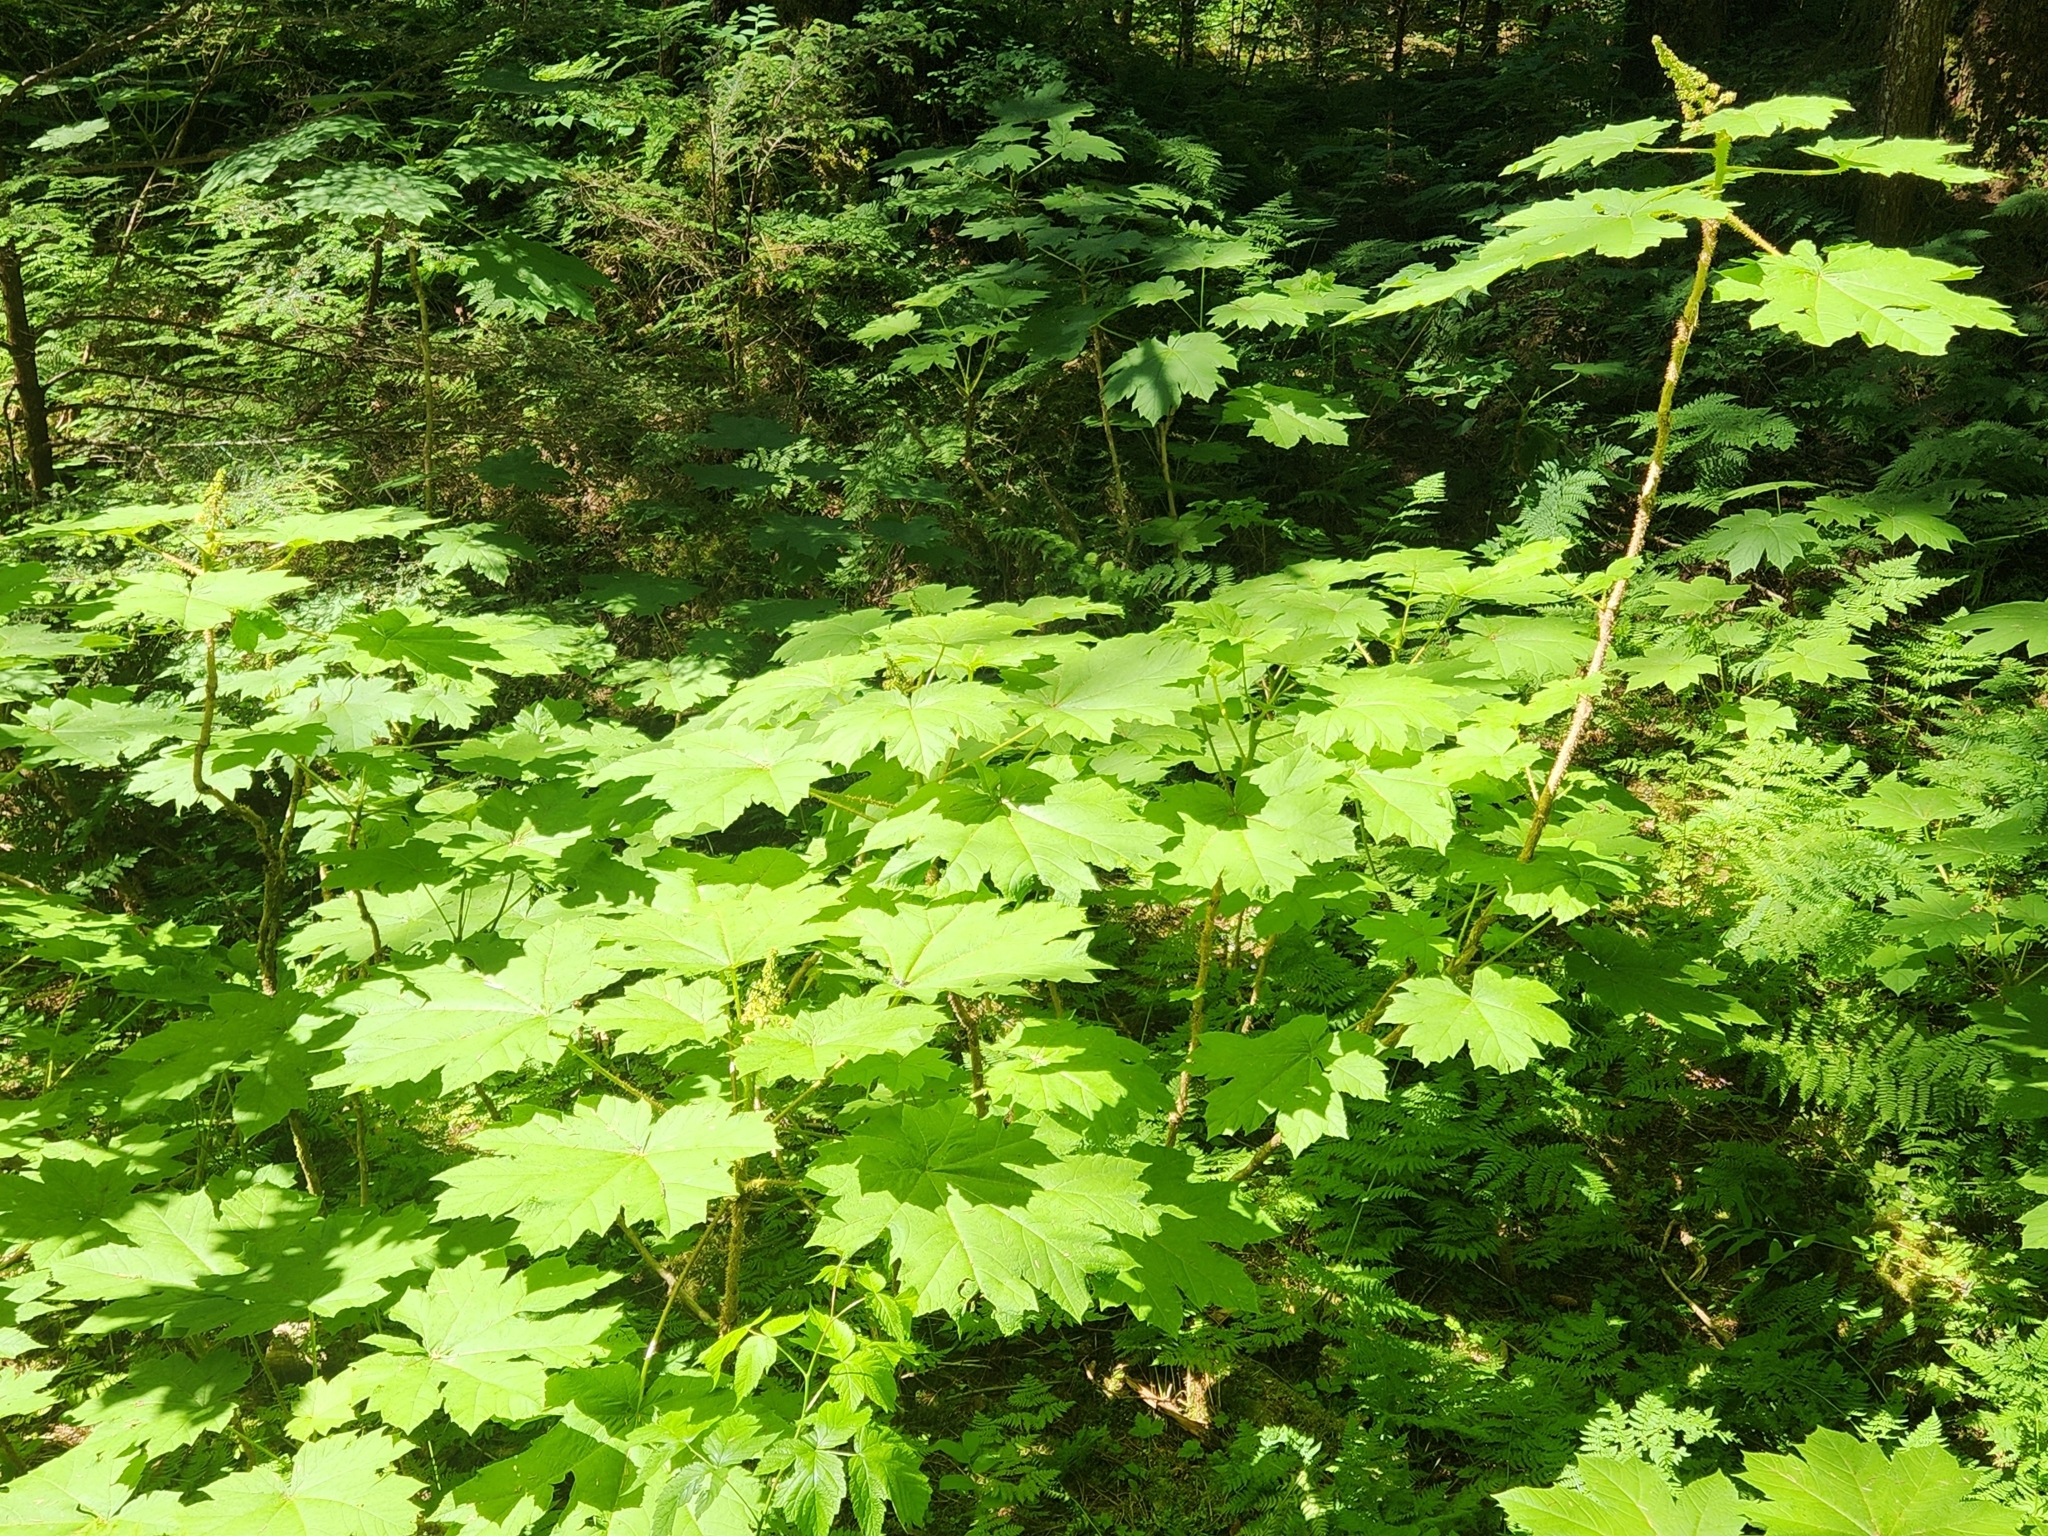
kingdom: Plantae
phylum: Tracheophyta
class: Magnoliopsida
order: Apiales
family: Araliaceae
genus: Oplopanax
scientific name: Oplopanax horridus
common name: Devil's walking-stick
